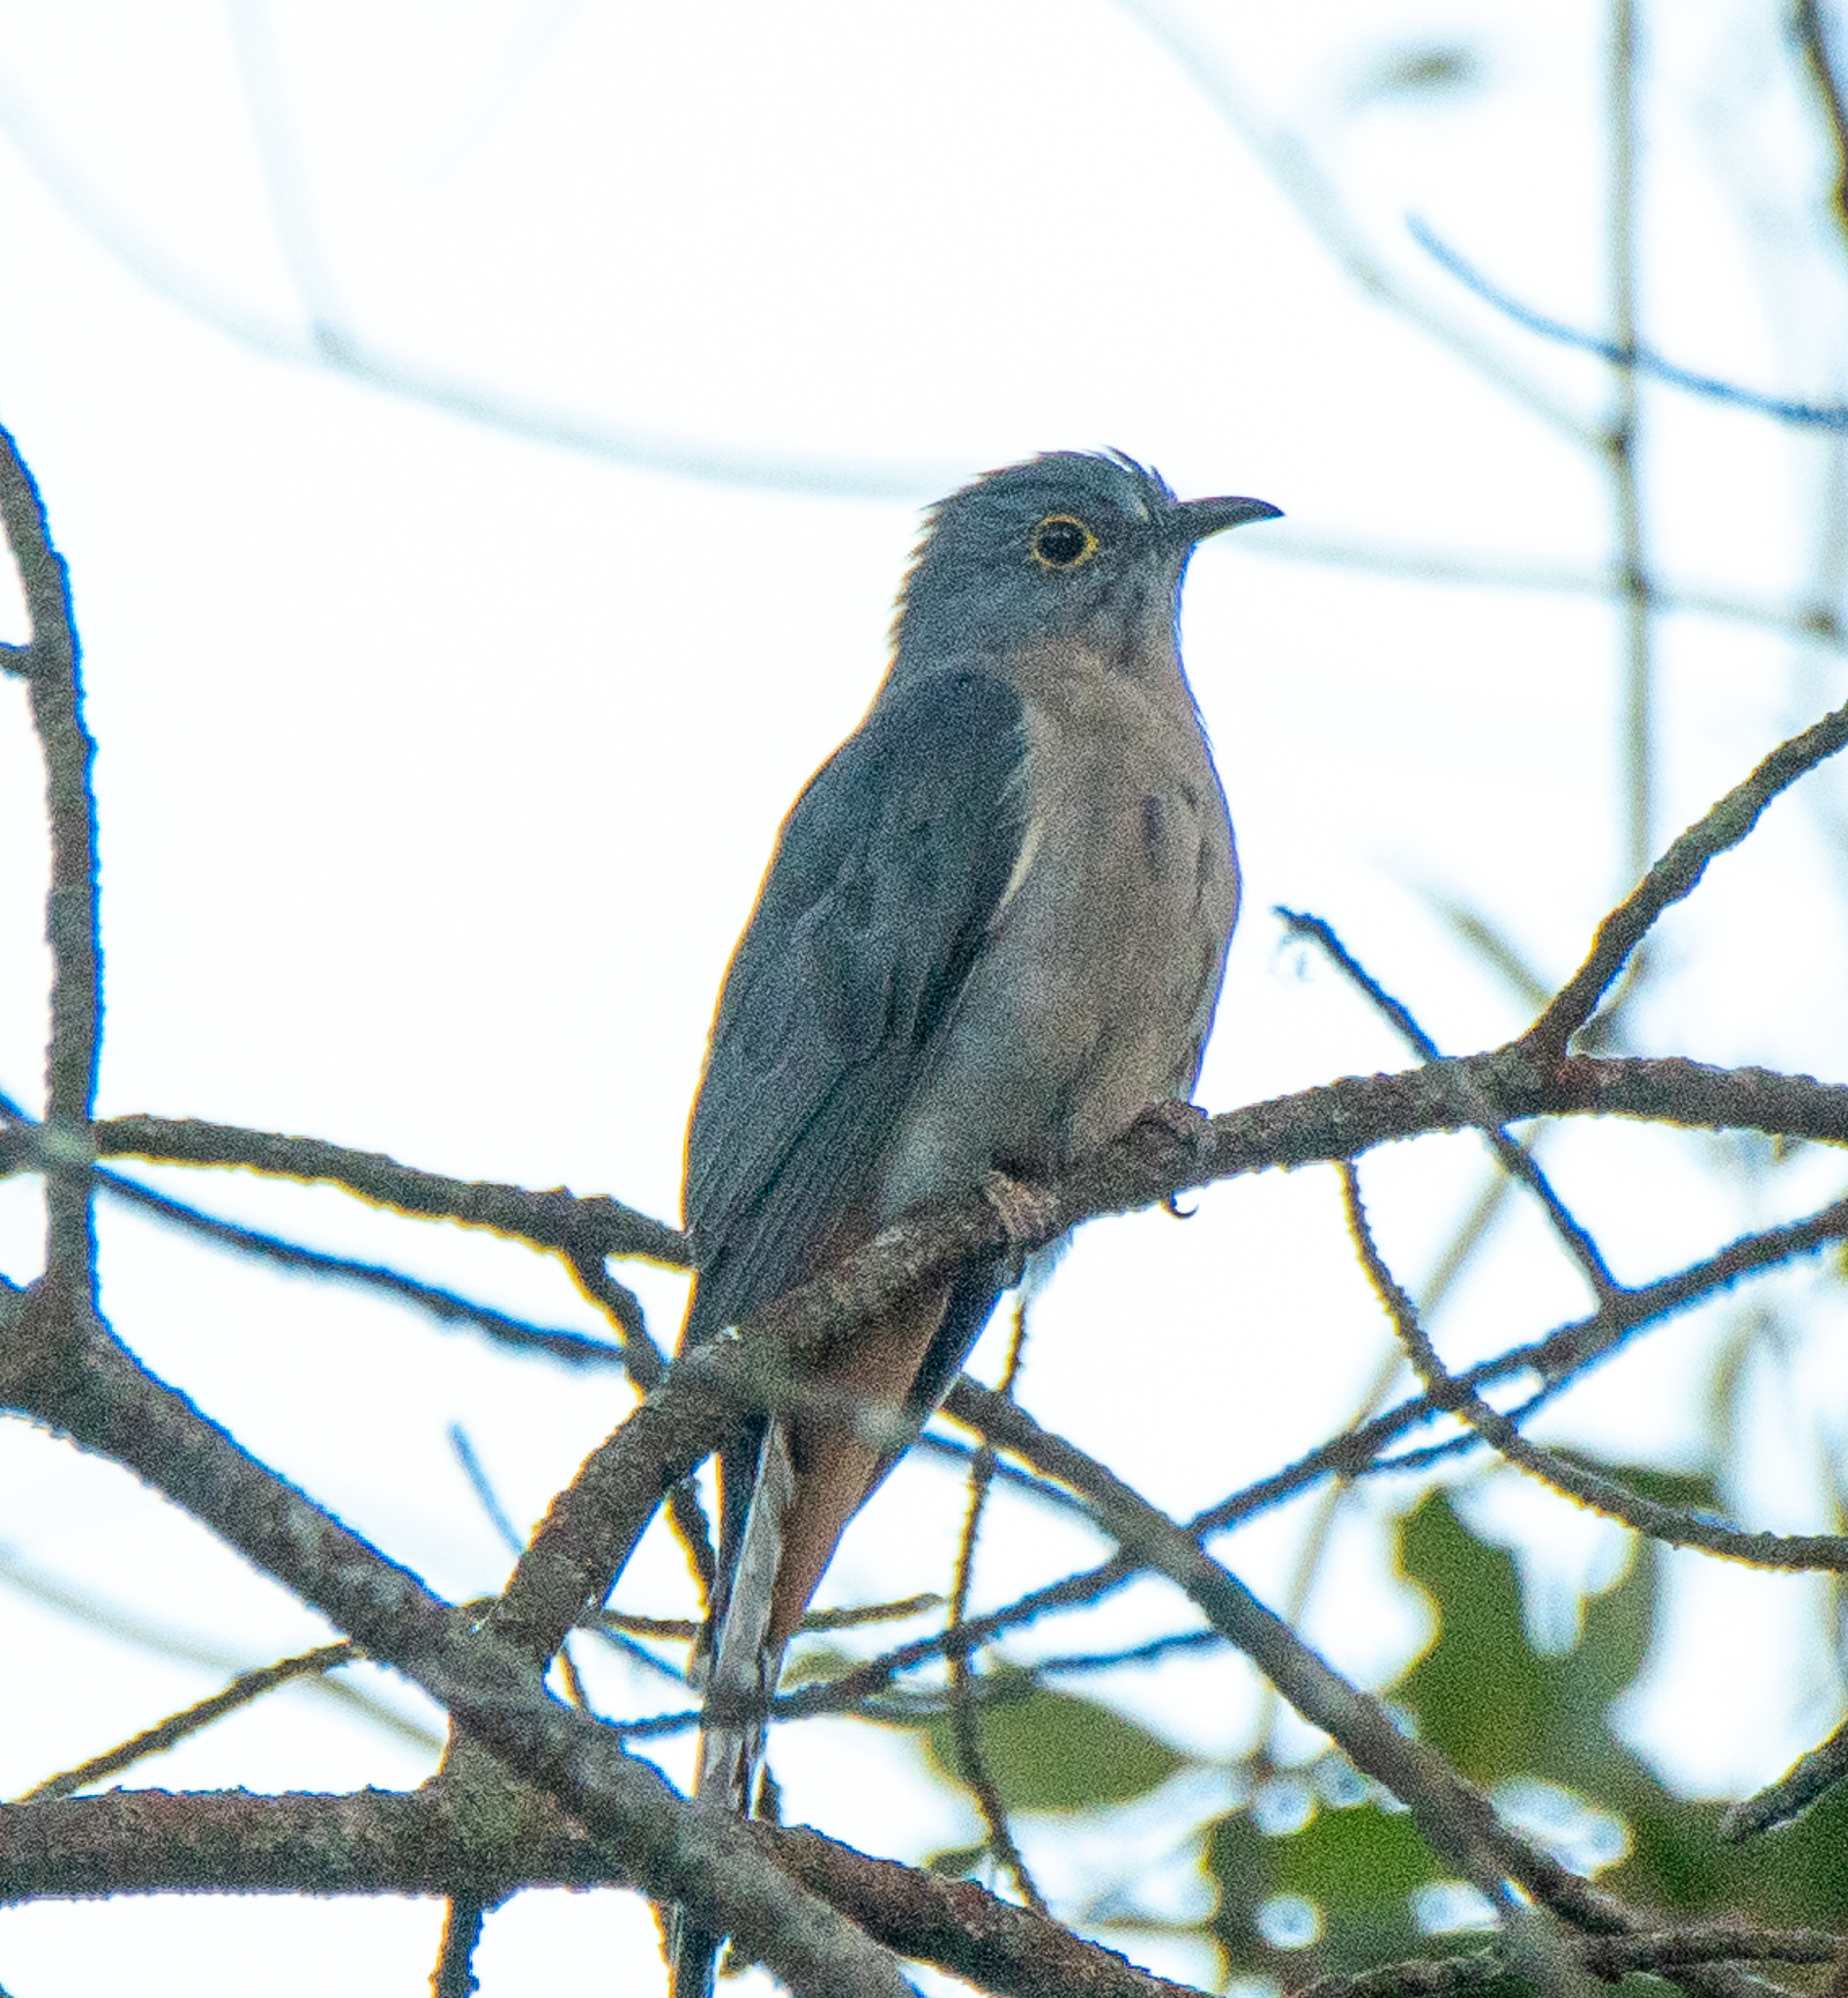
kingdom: Animalia
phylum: Chordata
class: Aves
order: Cuculiformes
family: Cuculidae
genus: Cacomantis
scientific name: Cacomantis flabelliformis
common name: Fan-tailed cuckoo
